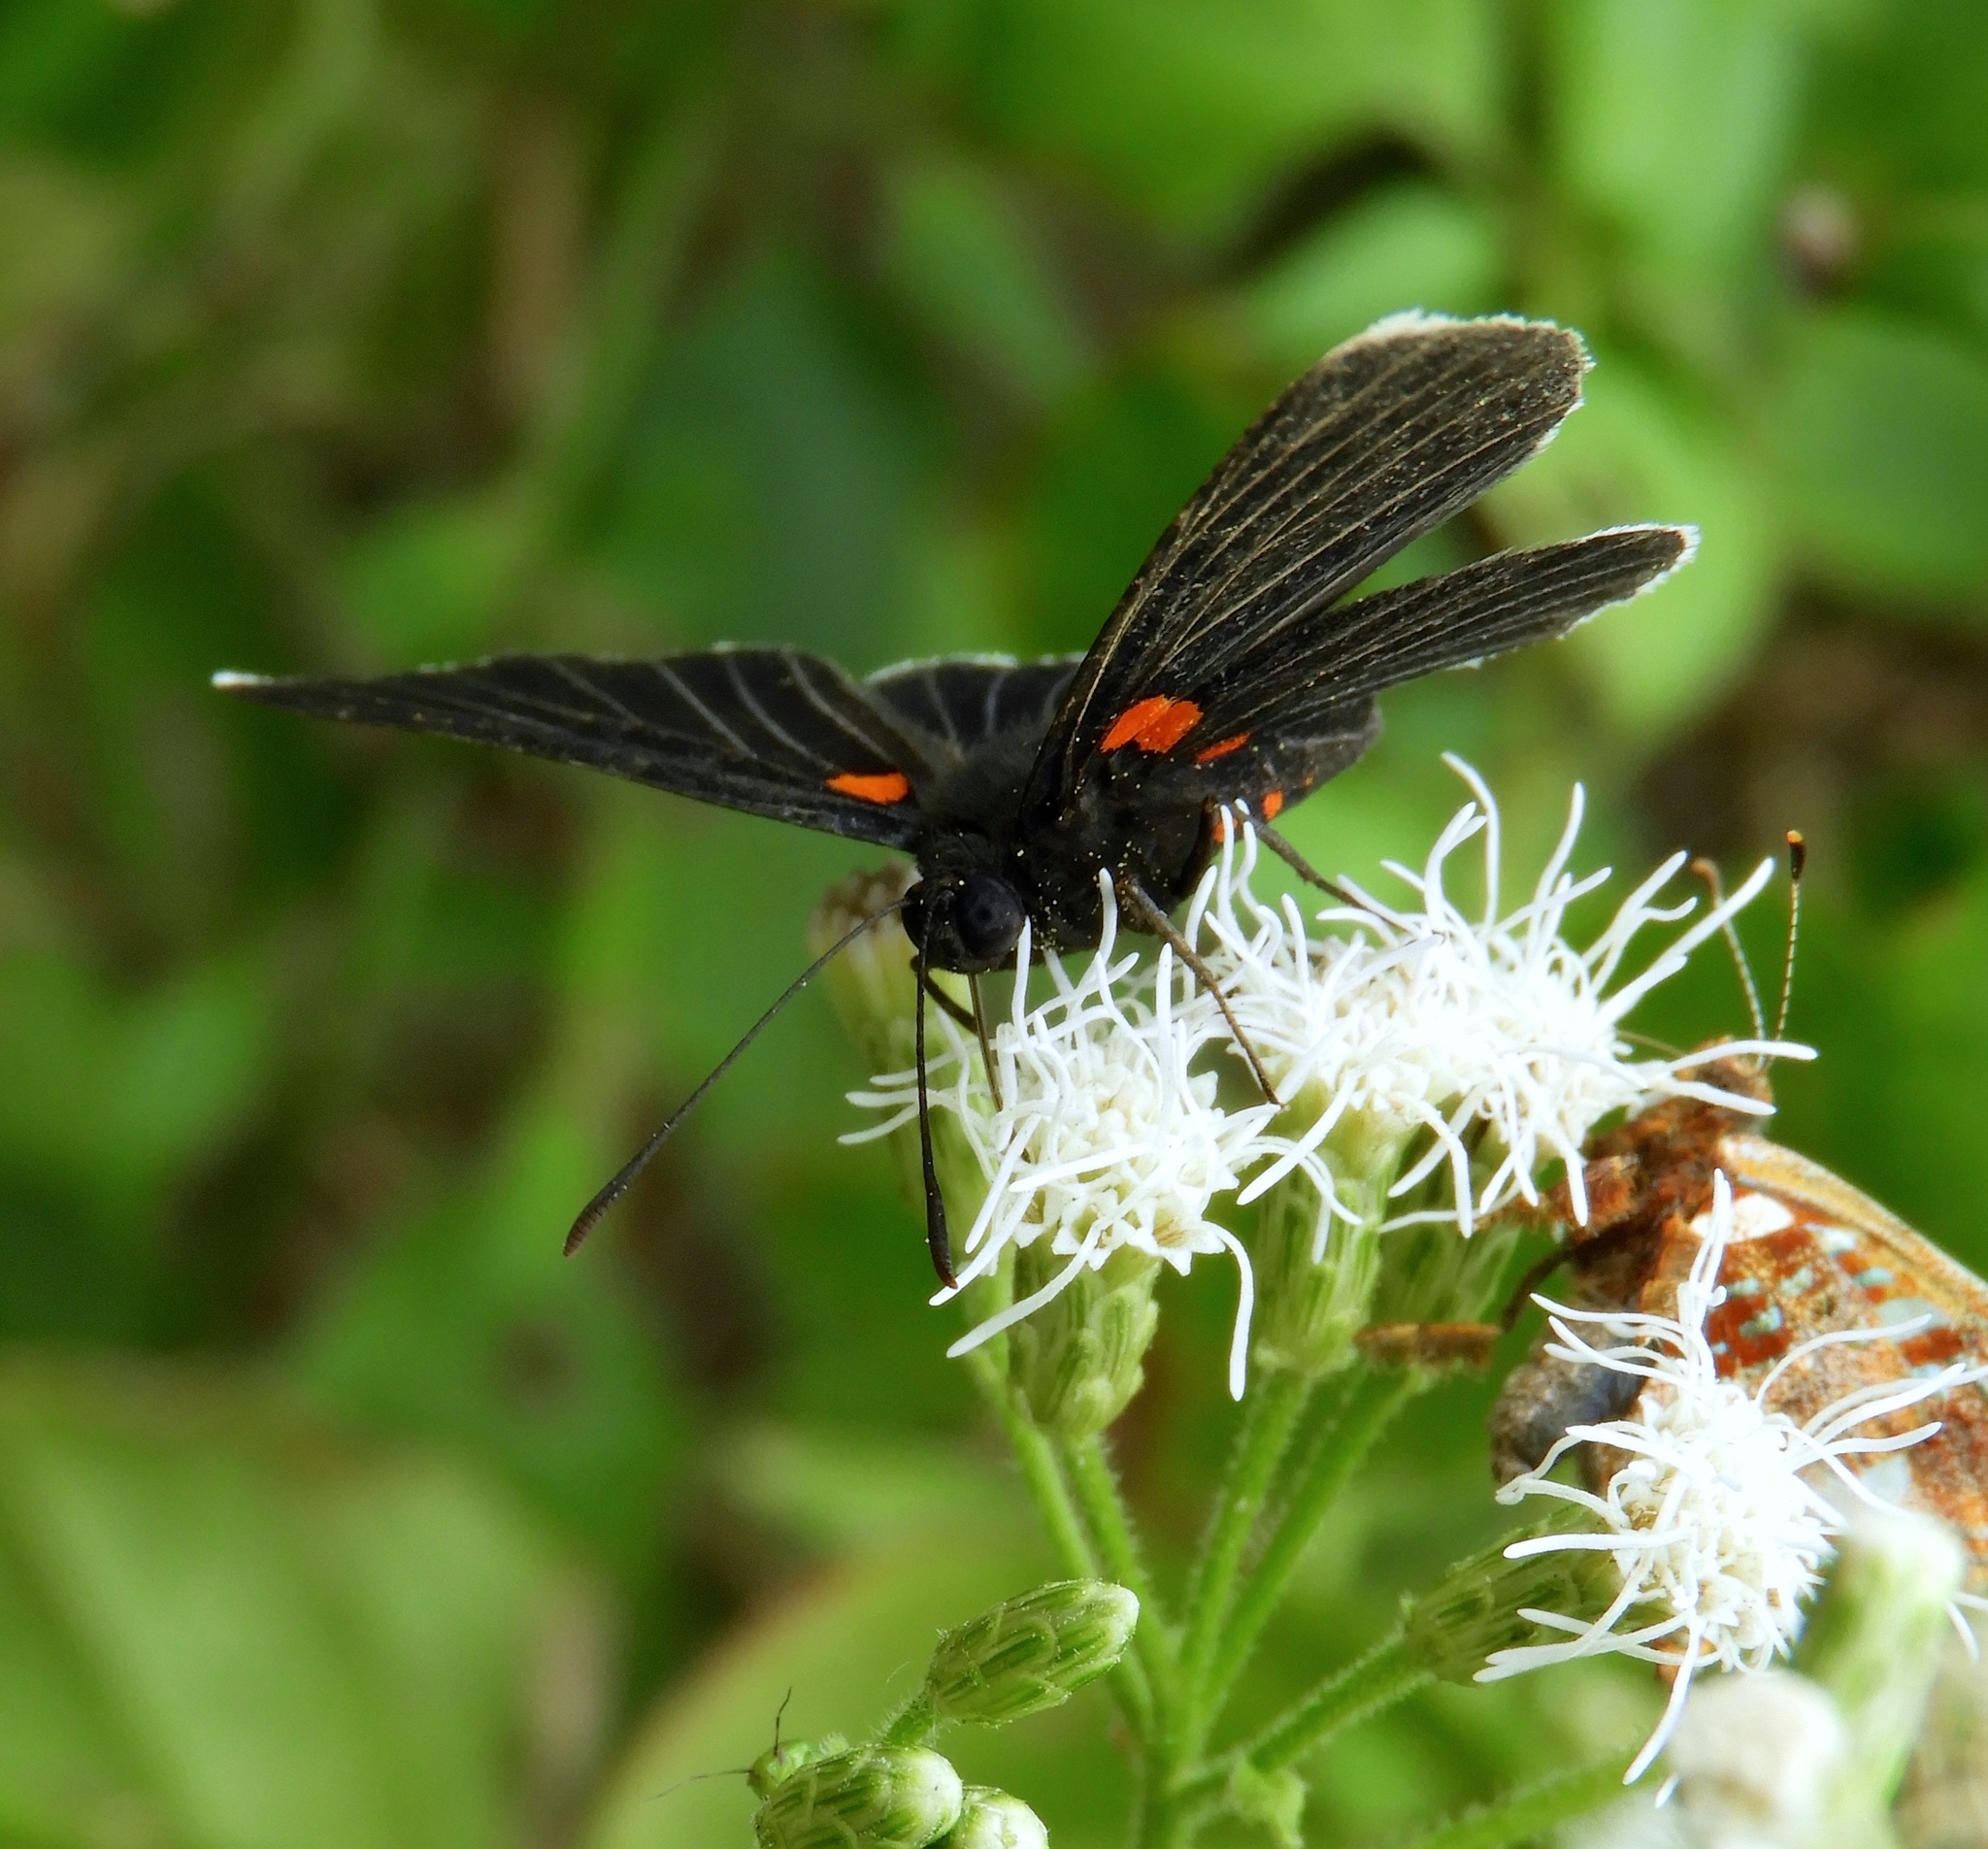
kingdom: Animalia
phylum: Arthropoda
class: Insecta
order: Lepidoptera
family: Lycaenidae
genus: Melanis
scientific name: Melanis
